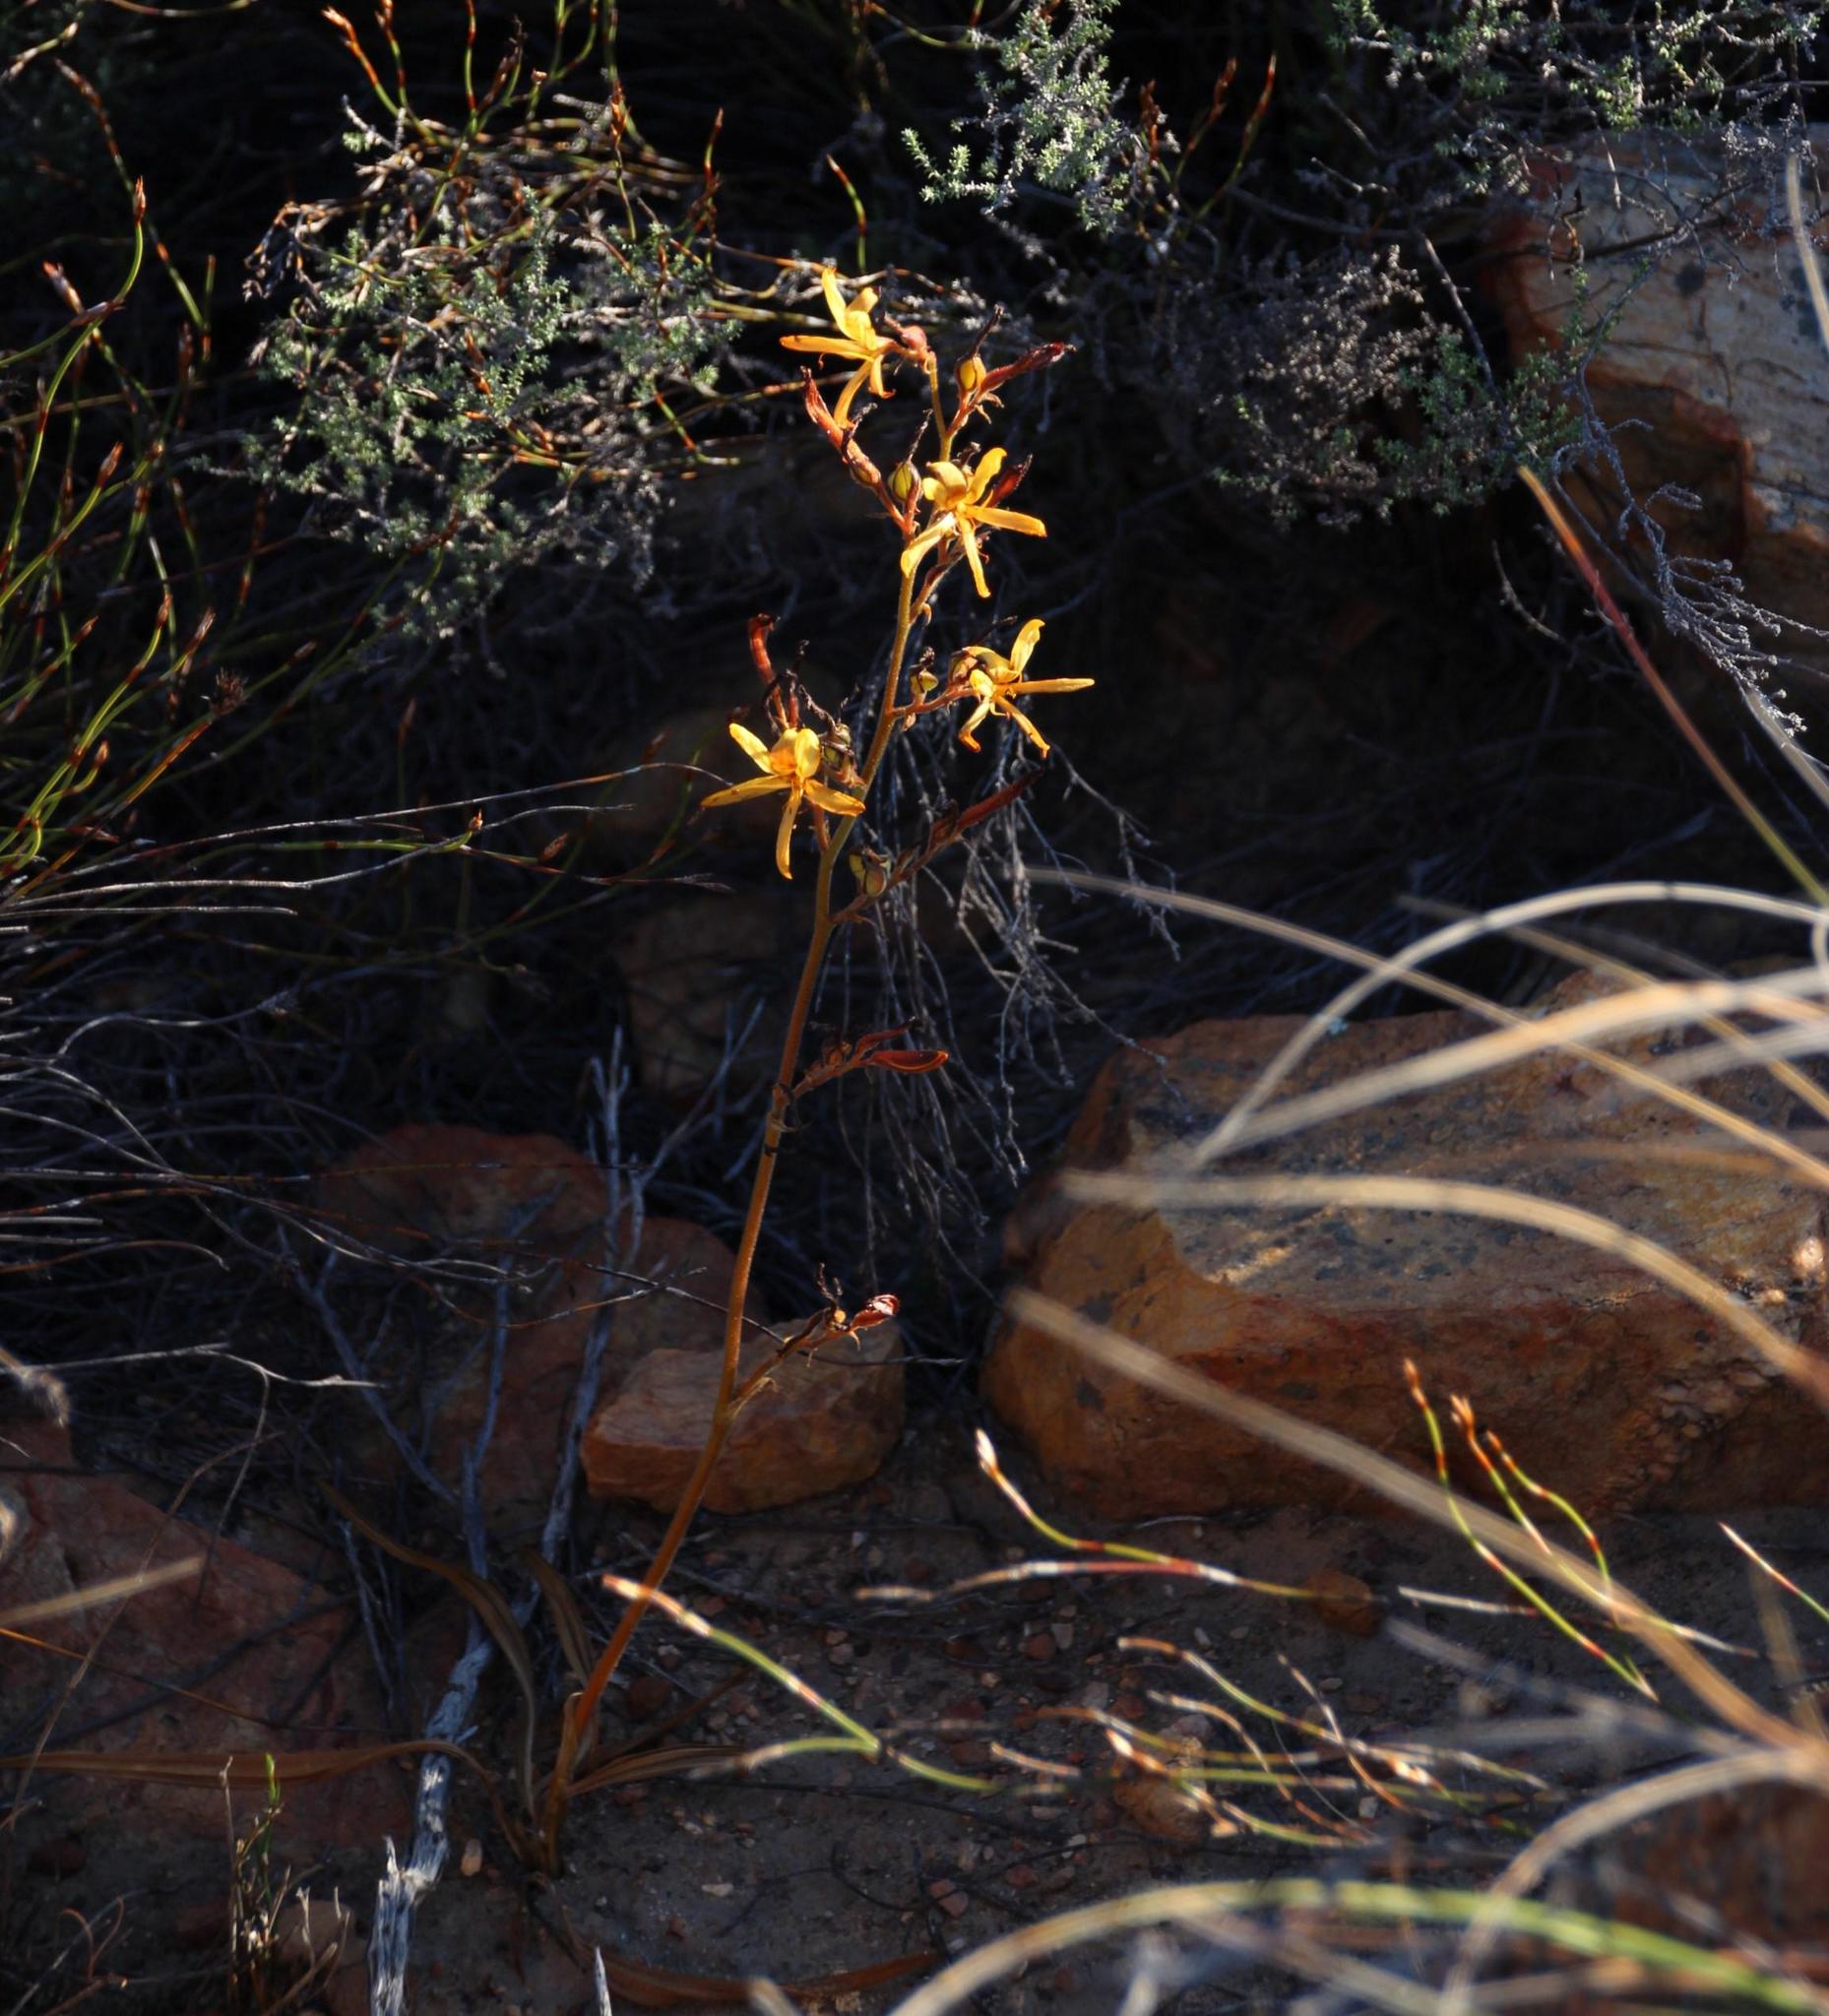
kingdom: Plantae
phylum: Tracheophyta
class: Liliopsida
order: Commelinales
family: Haemodoraceae
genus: Wachendorfia
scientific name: Wachendorfia paniculata
